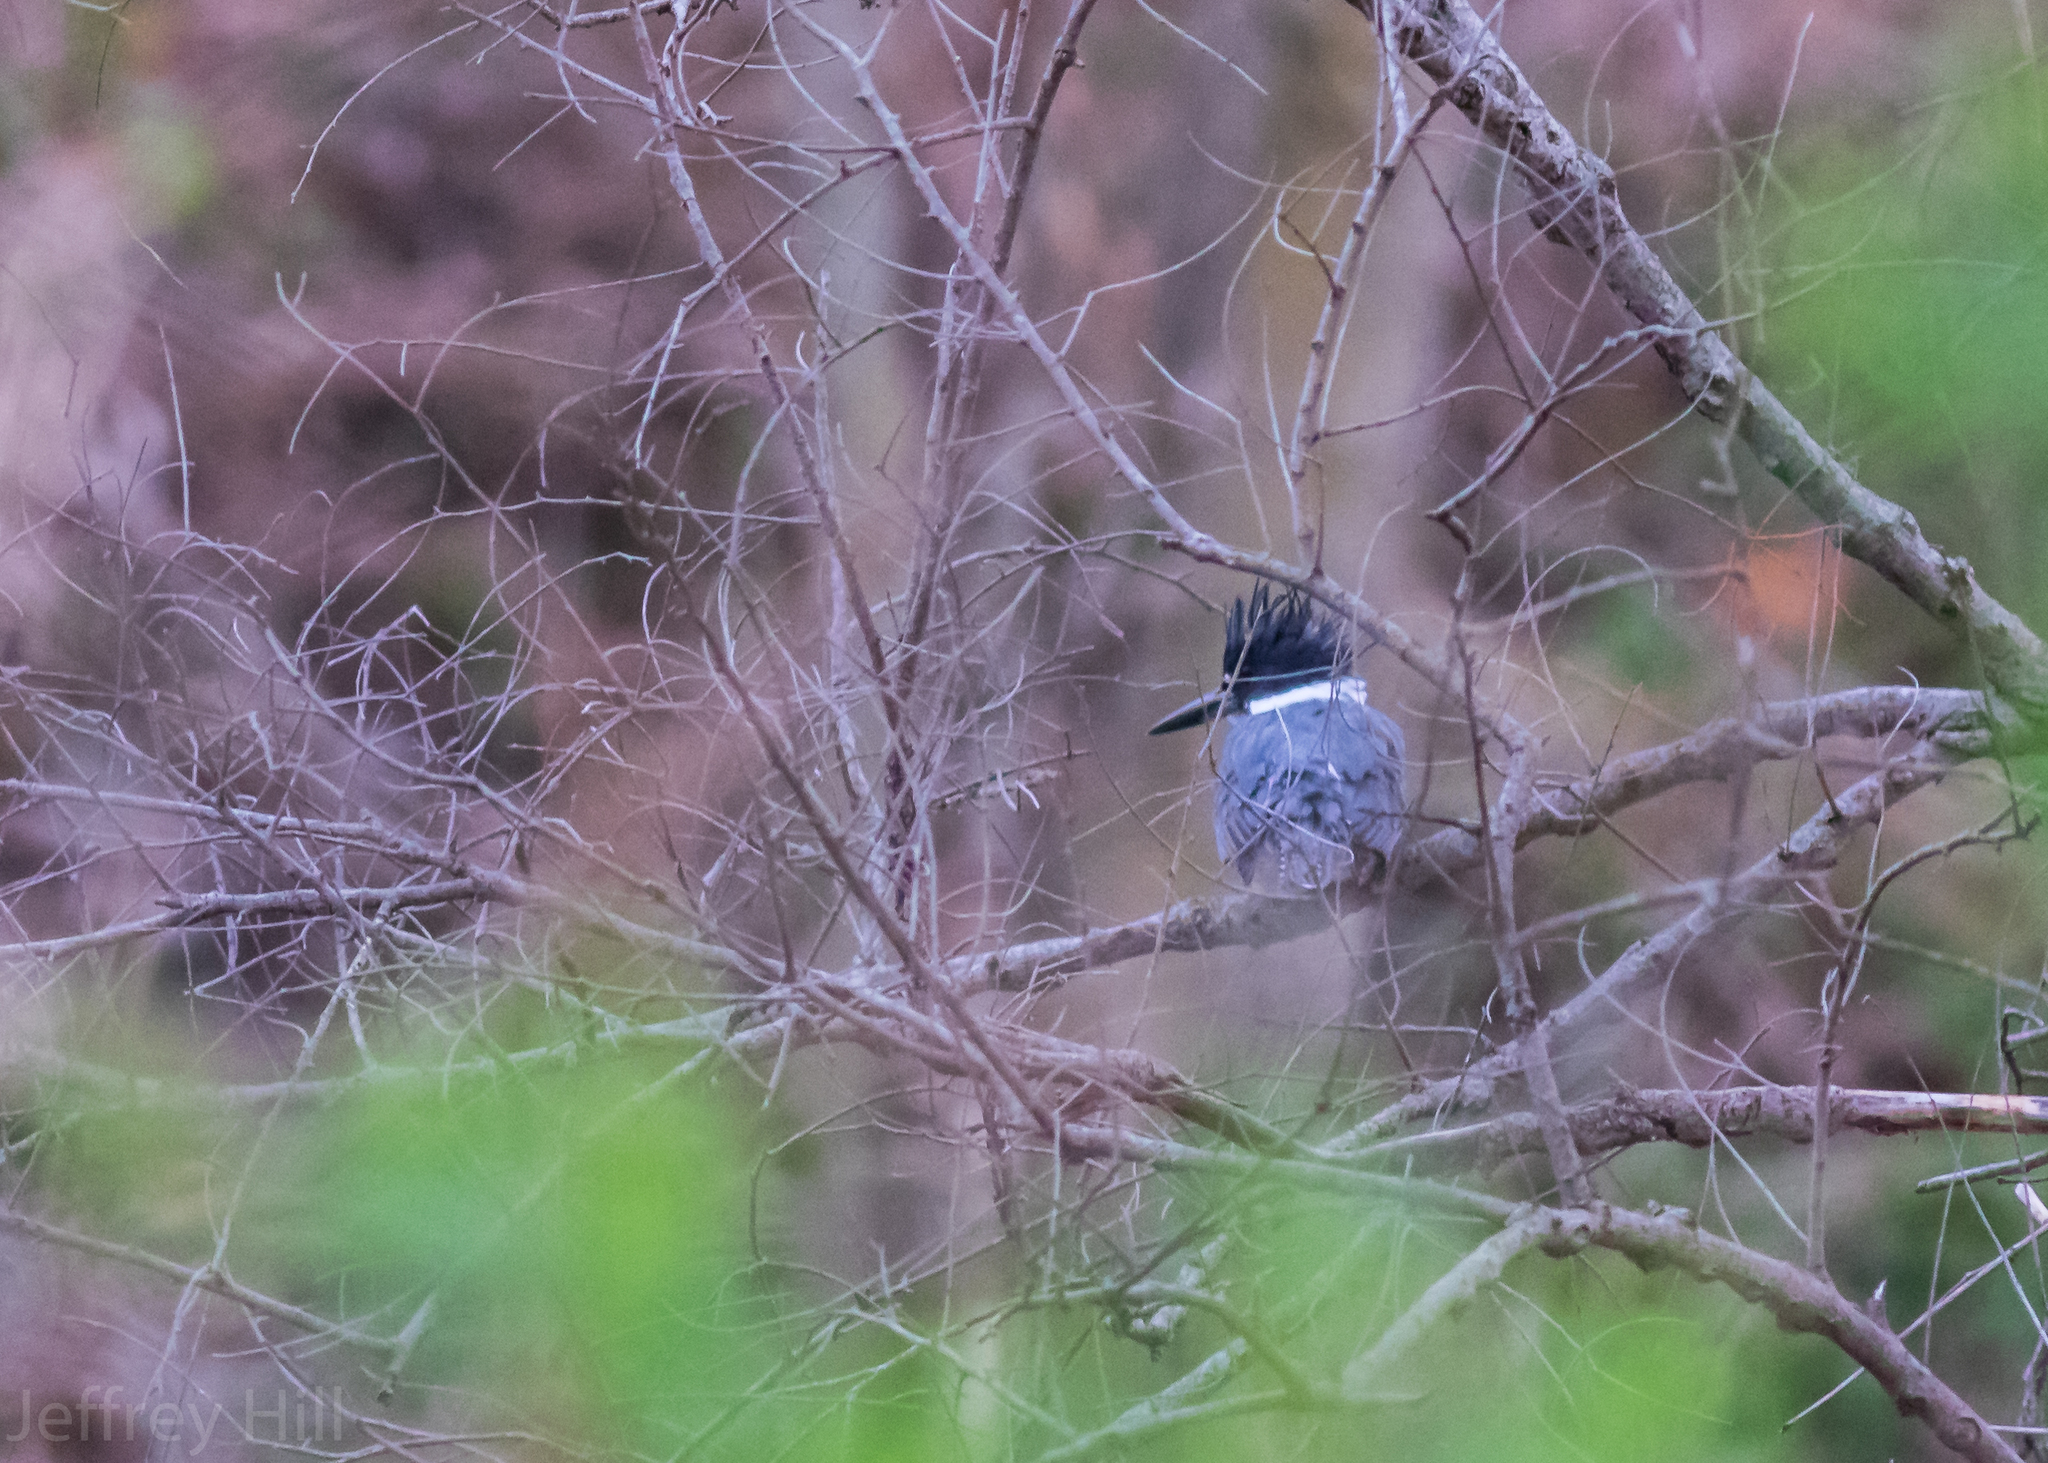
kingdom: Animalia
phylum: Chordata
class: Aves
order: Coraciiformes
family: Alcedinidae
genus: Megaceryle
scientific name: Megaceryle alcyon
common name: Belted kingfisher
